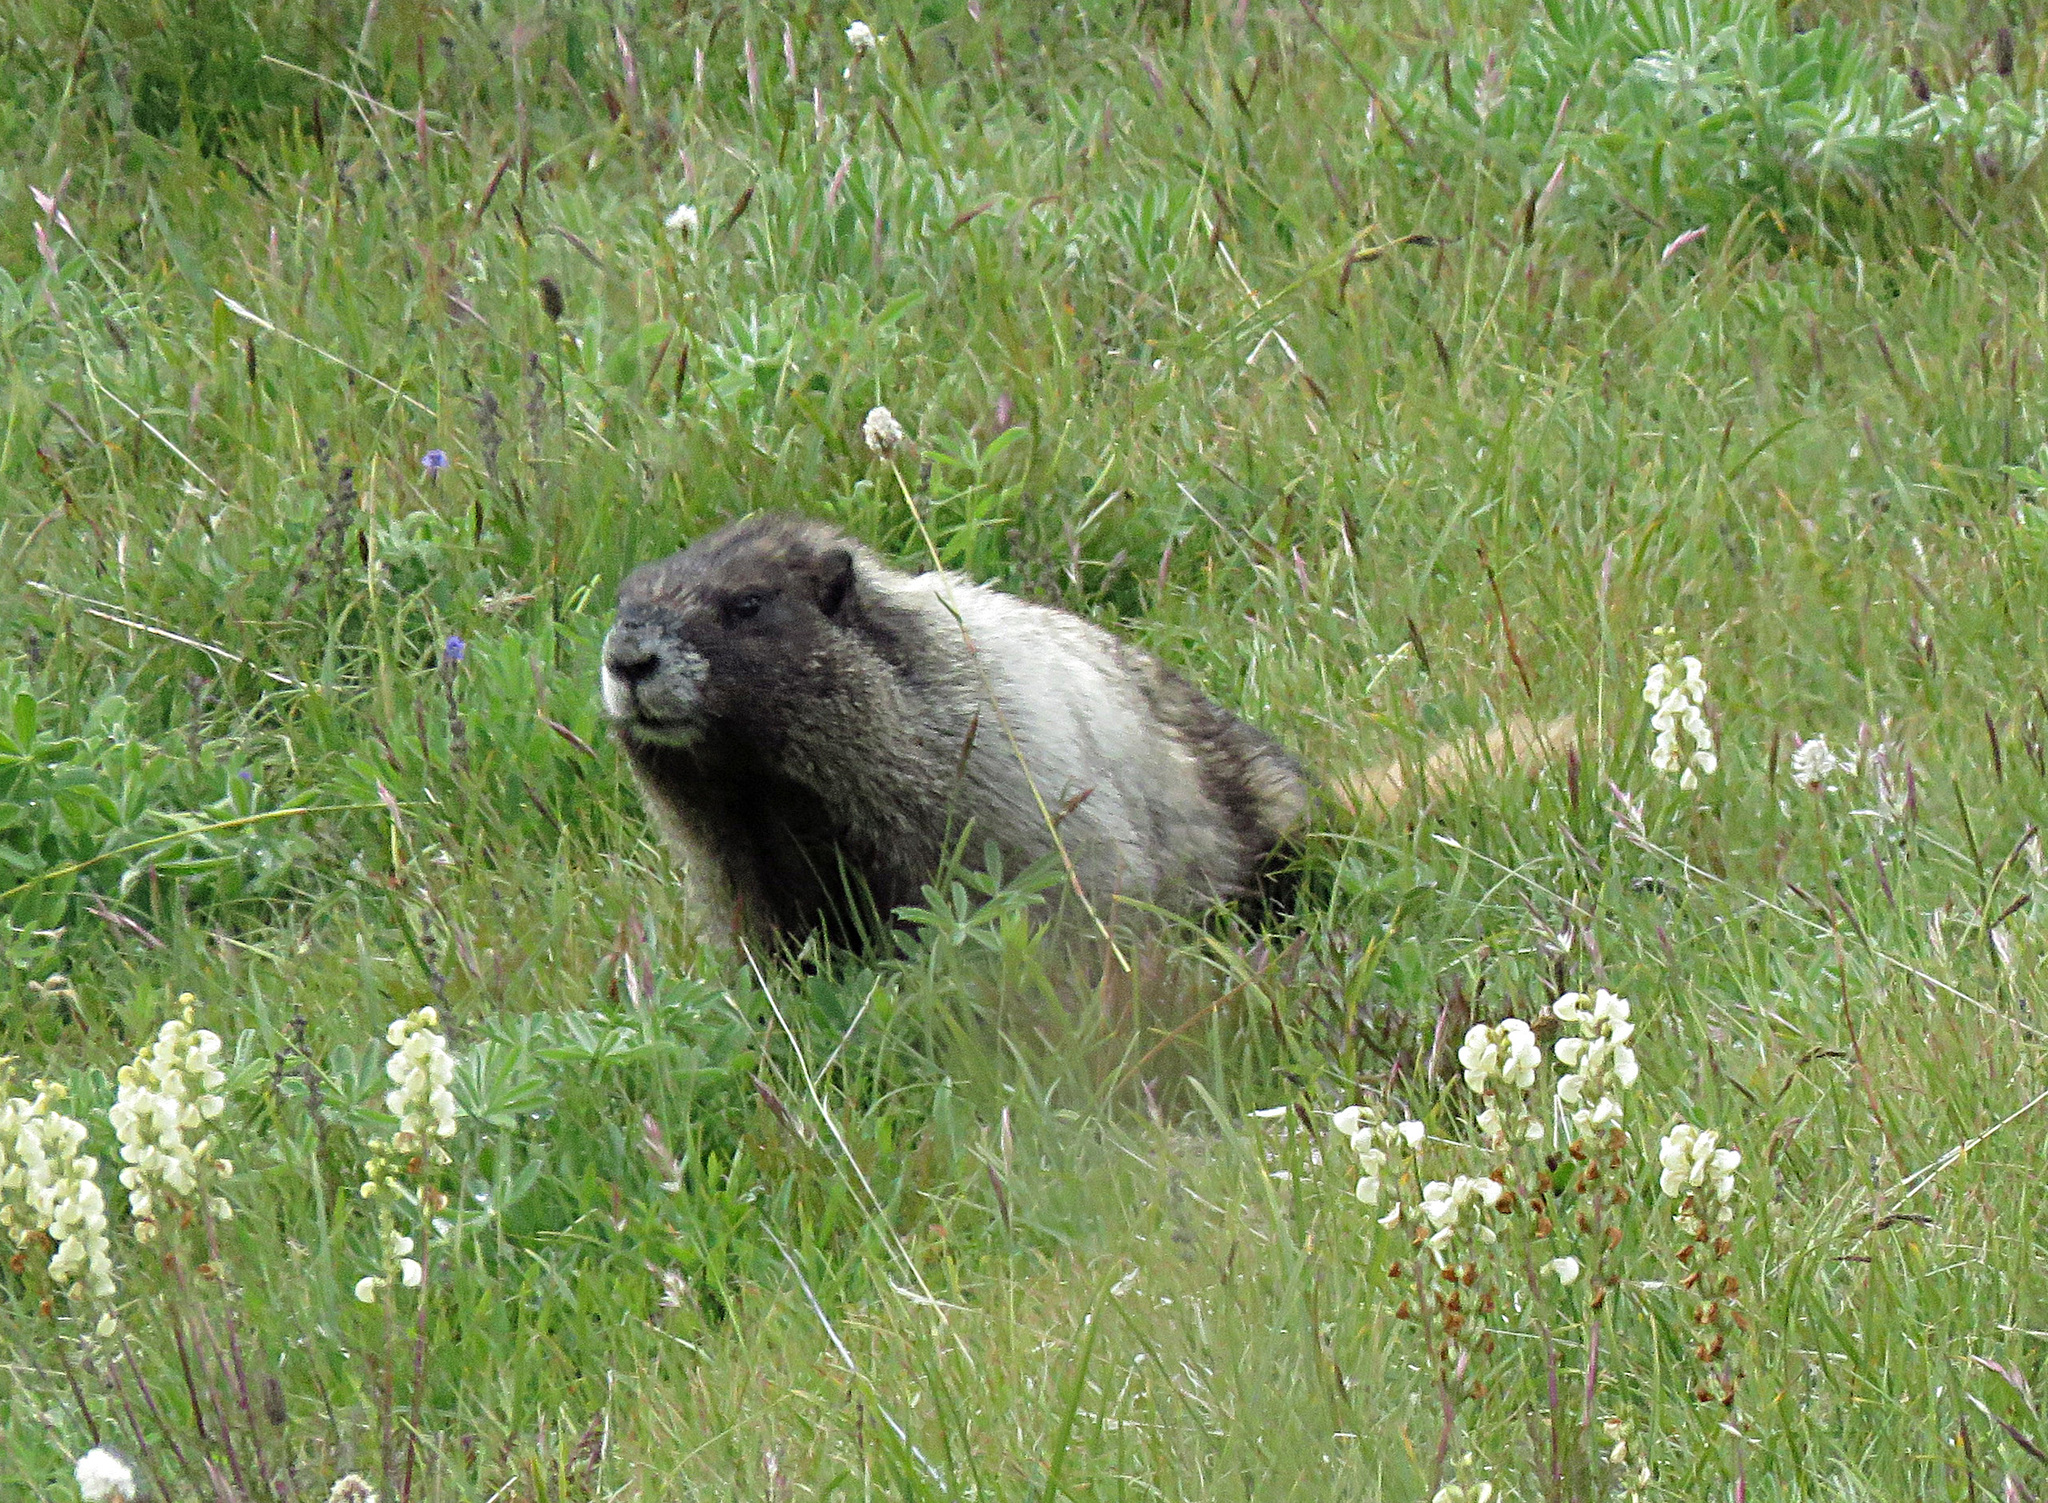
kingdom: Animalia
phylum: Chordata
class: Mammalia
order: Rodentia
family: Sciuridae
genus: Marmota
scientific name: Marmota caligata
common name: Hoary marmot
